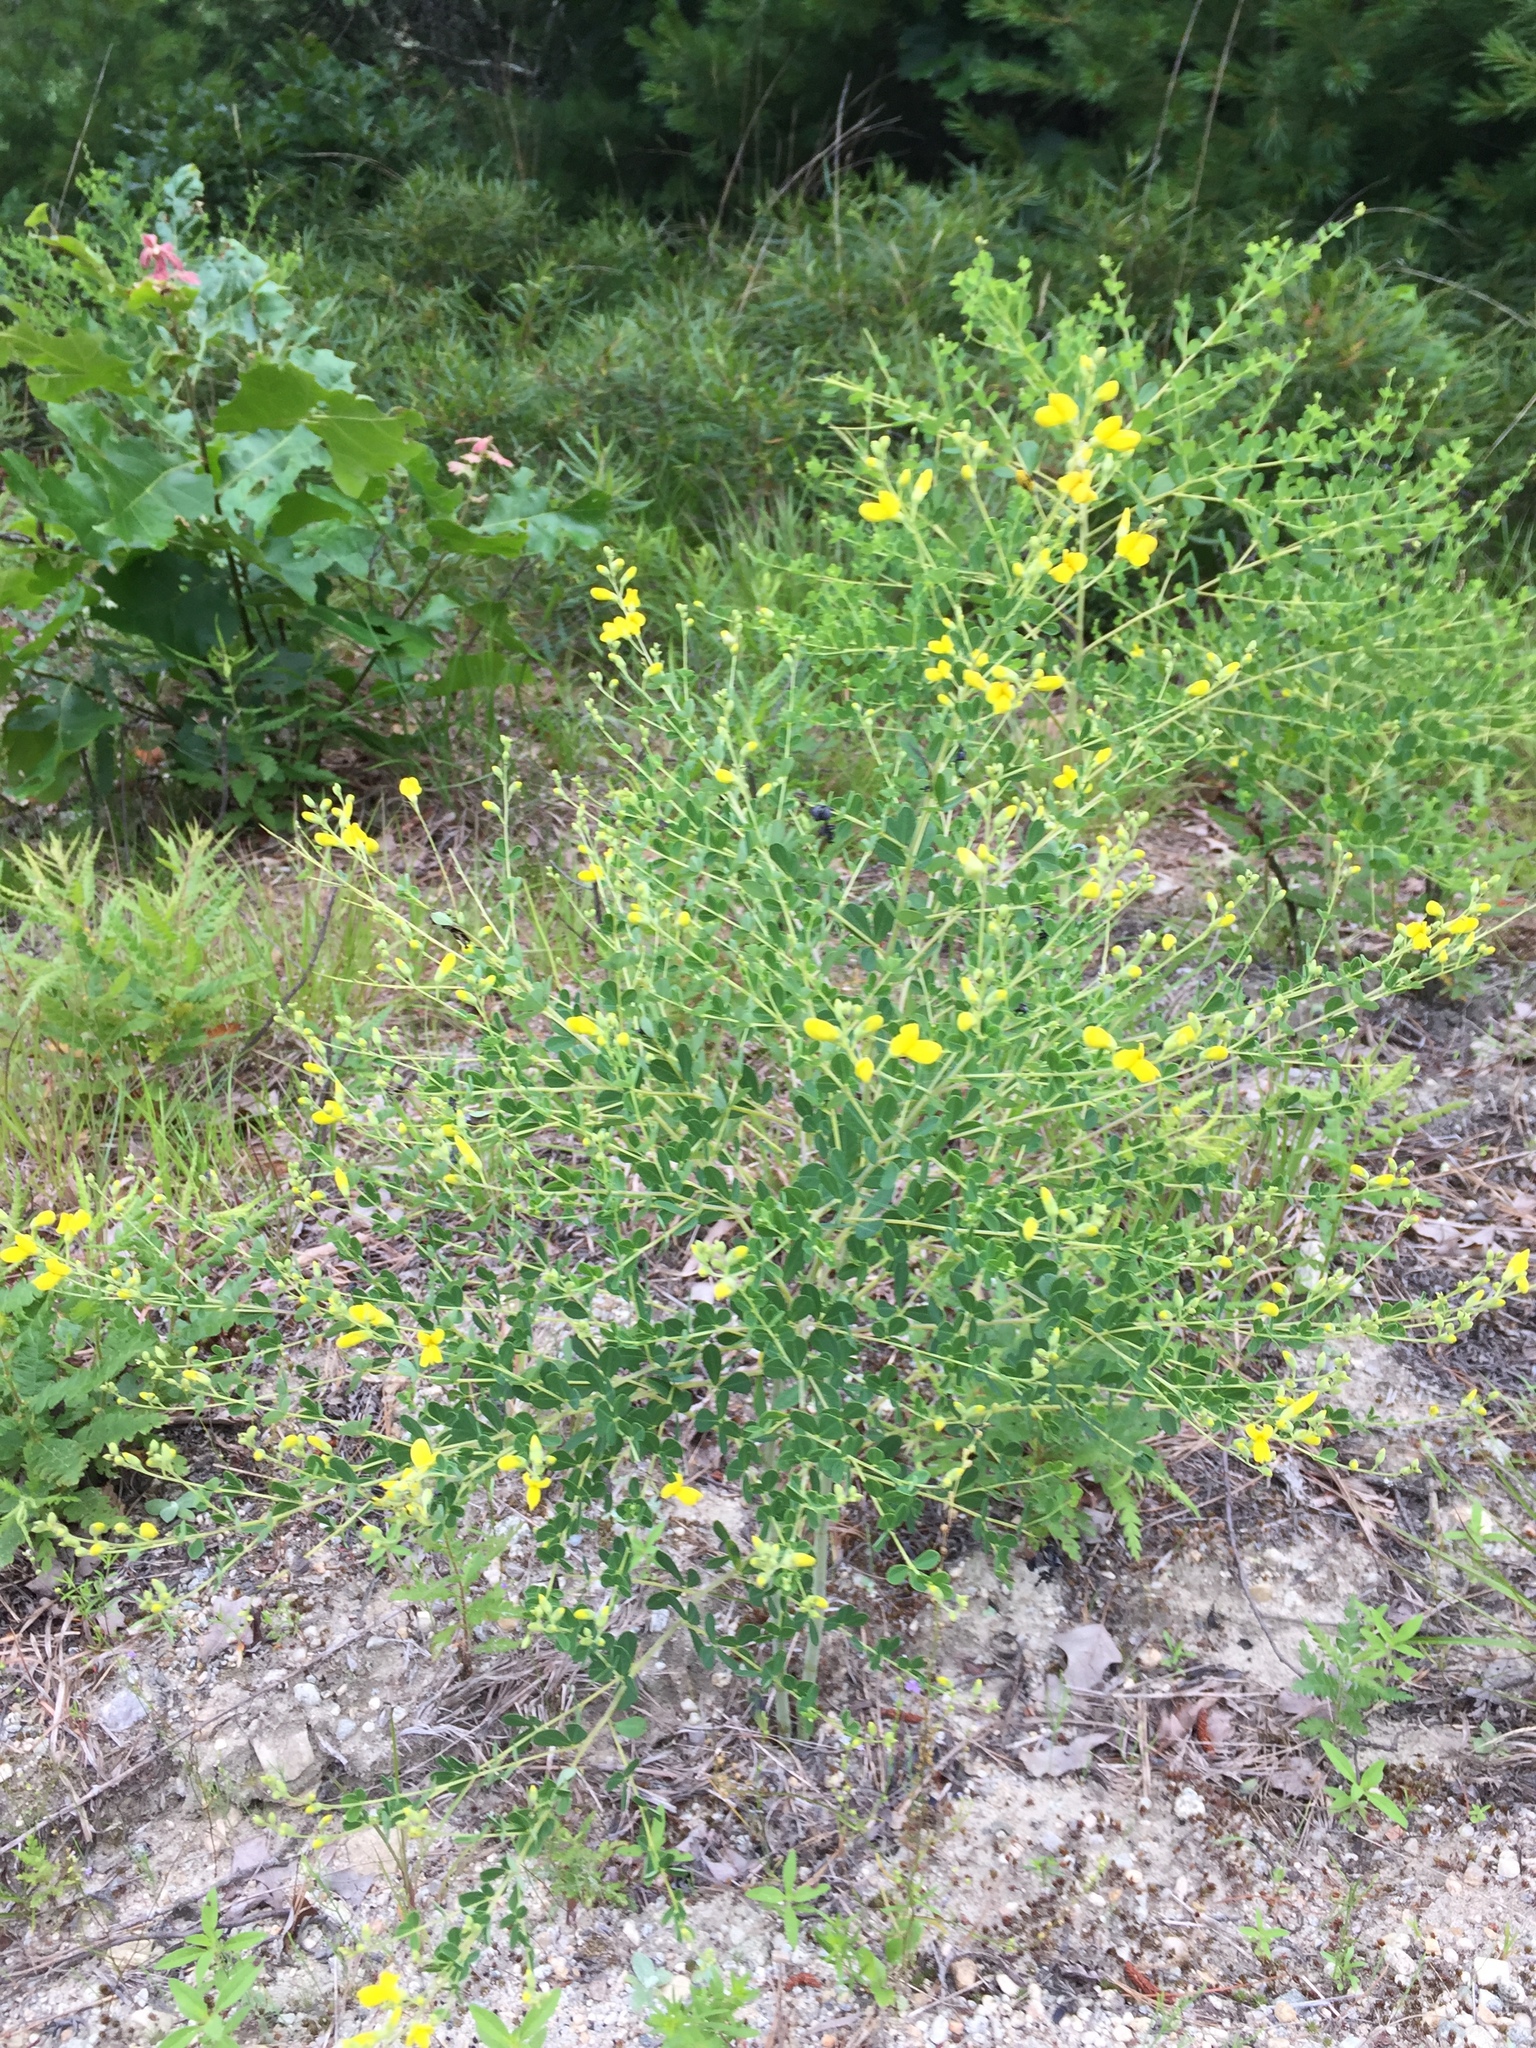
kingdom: Plantae
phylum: Tracheophyta
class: Magnoliopsida
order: Fabales
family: Fabaceae
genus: Baptisia
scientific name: Baptisia tinctoria
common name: Wild indigo
